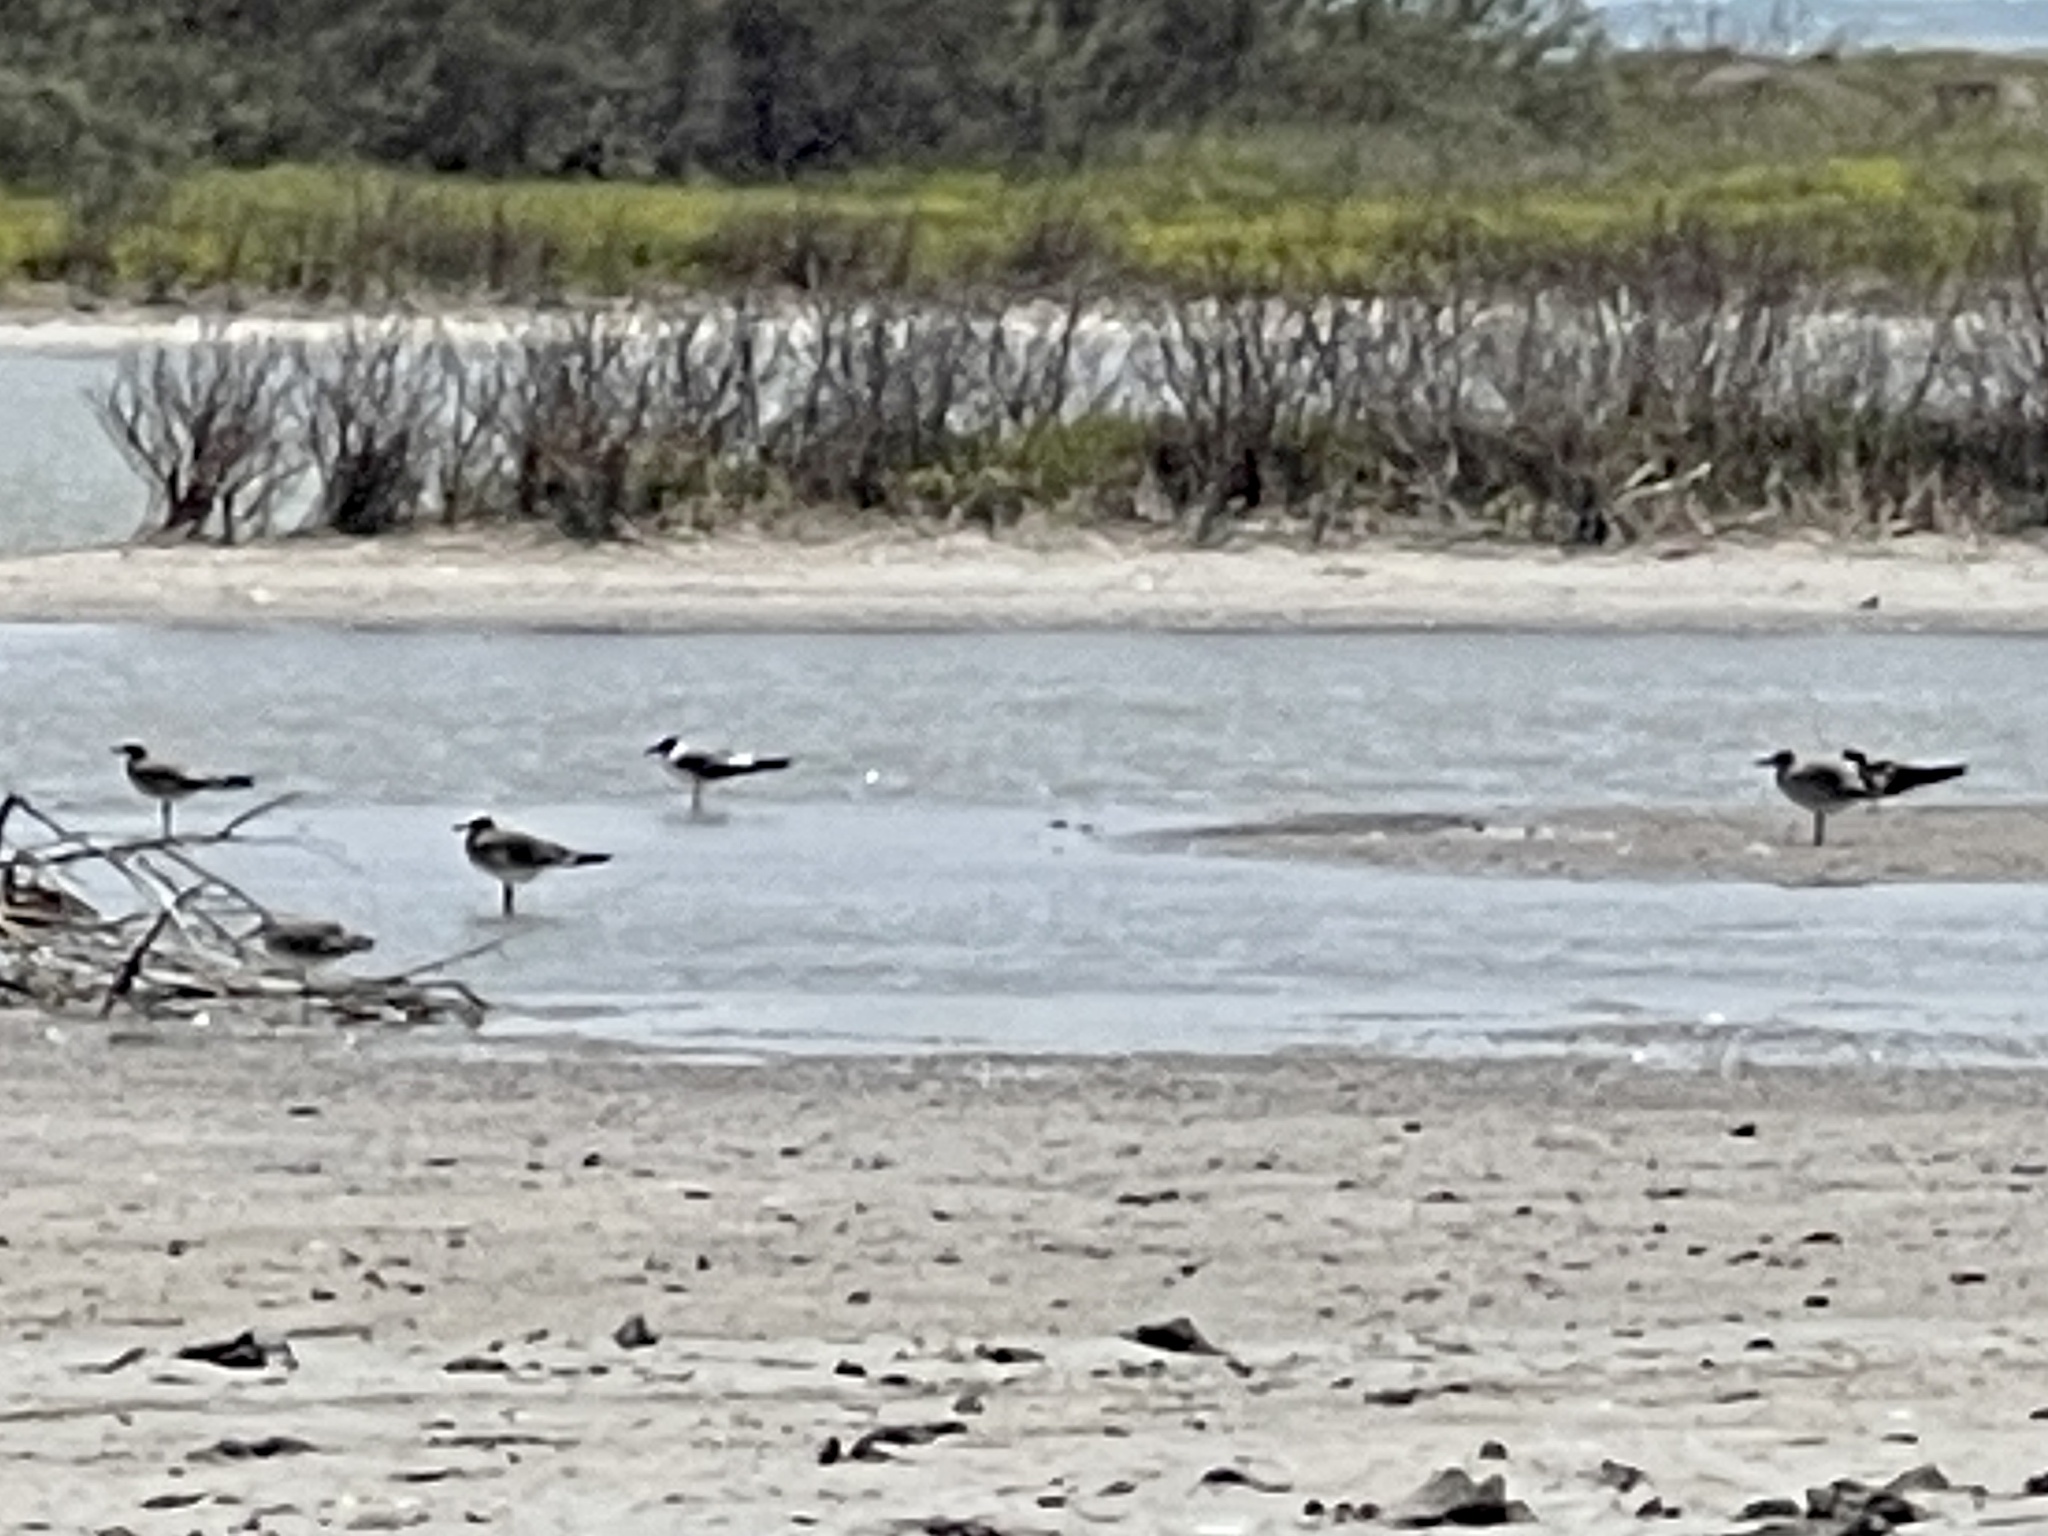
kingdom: Animalia
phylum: Chordata
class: Aves
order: Charadriiformes
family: Laridae
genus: Leucophaeus
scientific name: Leucophaeus atricilla
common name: Laughing gull
